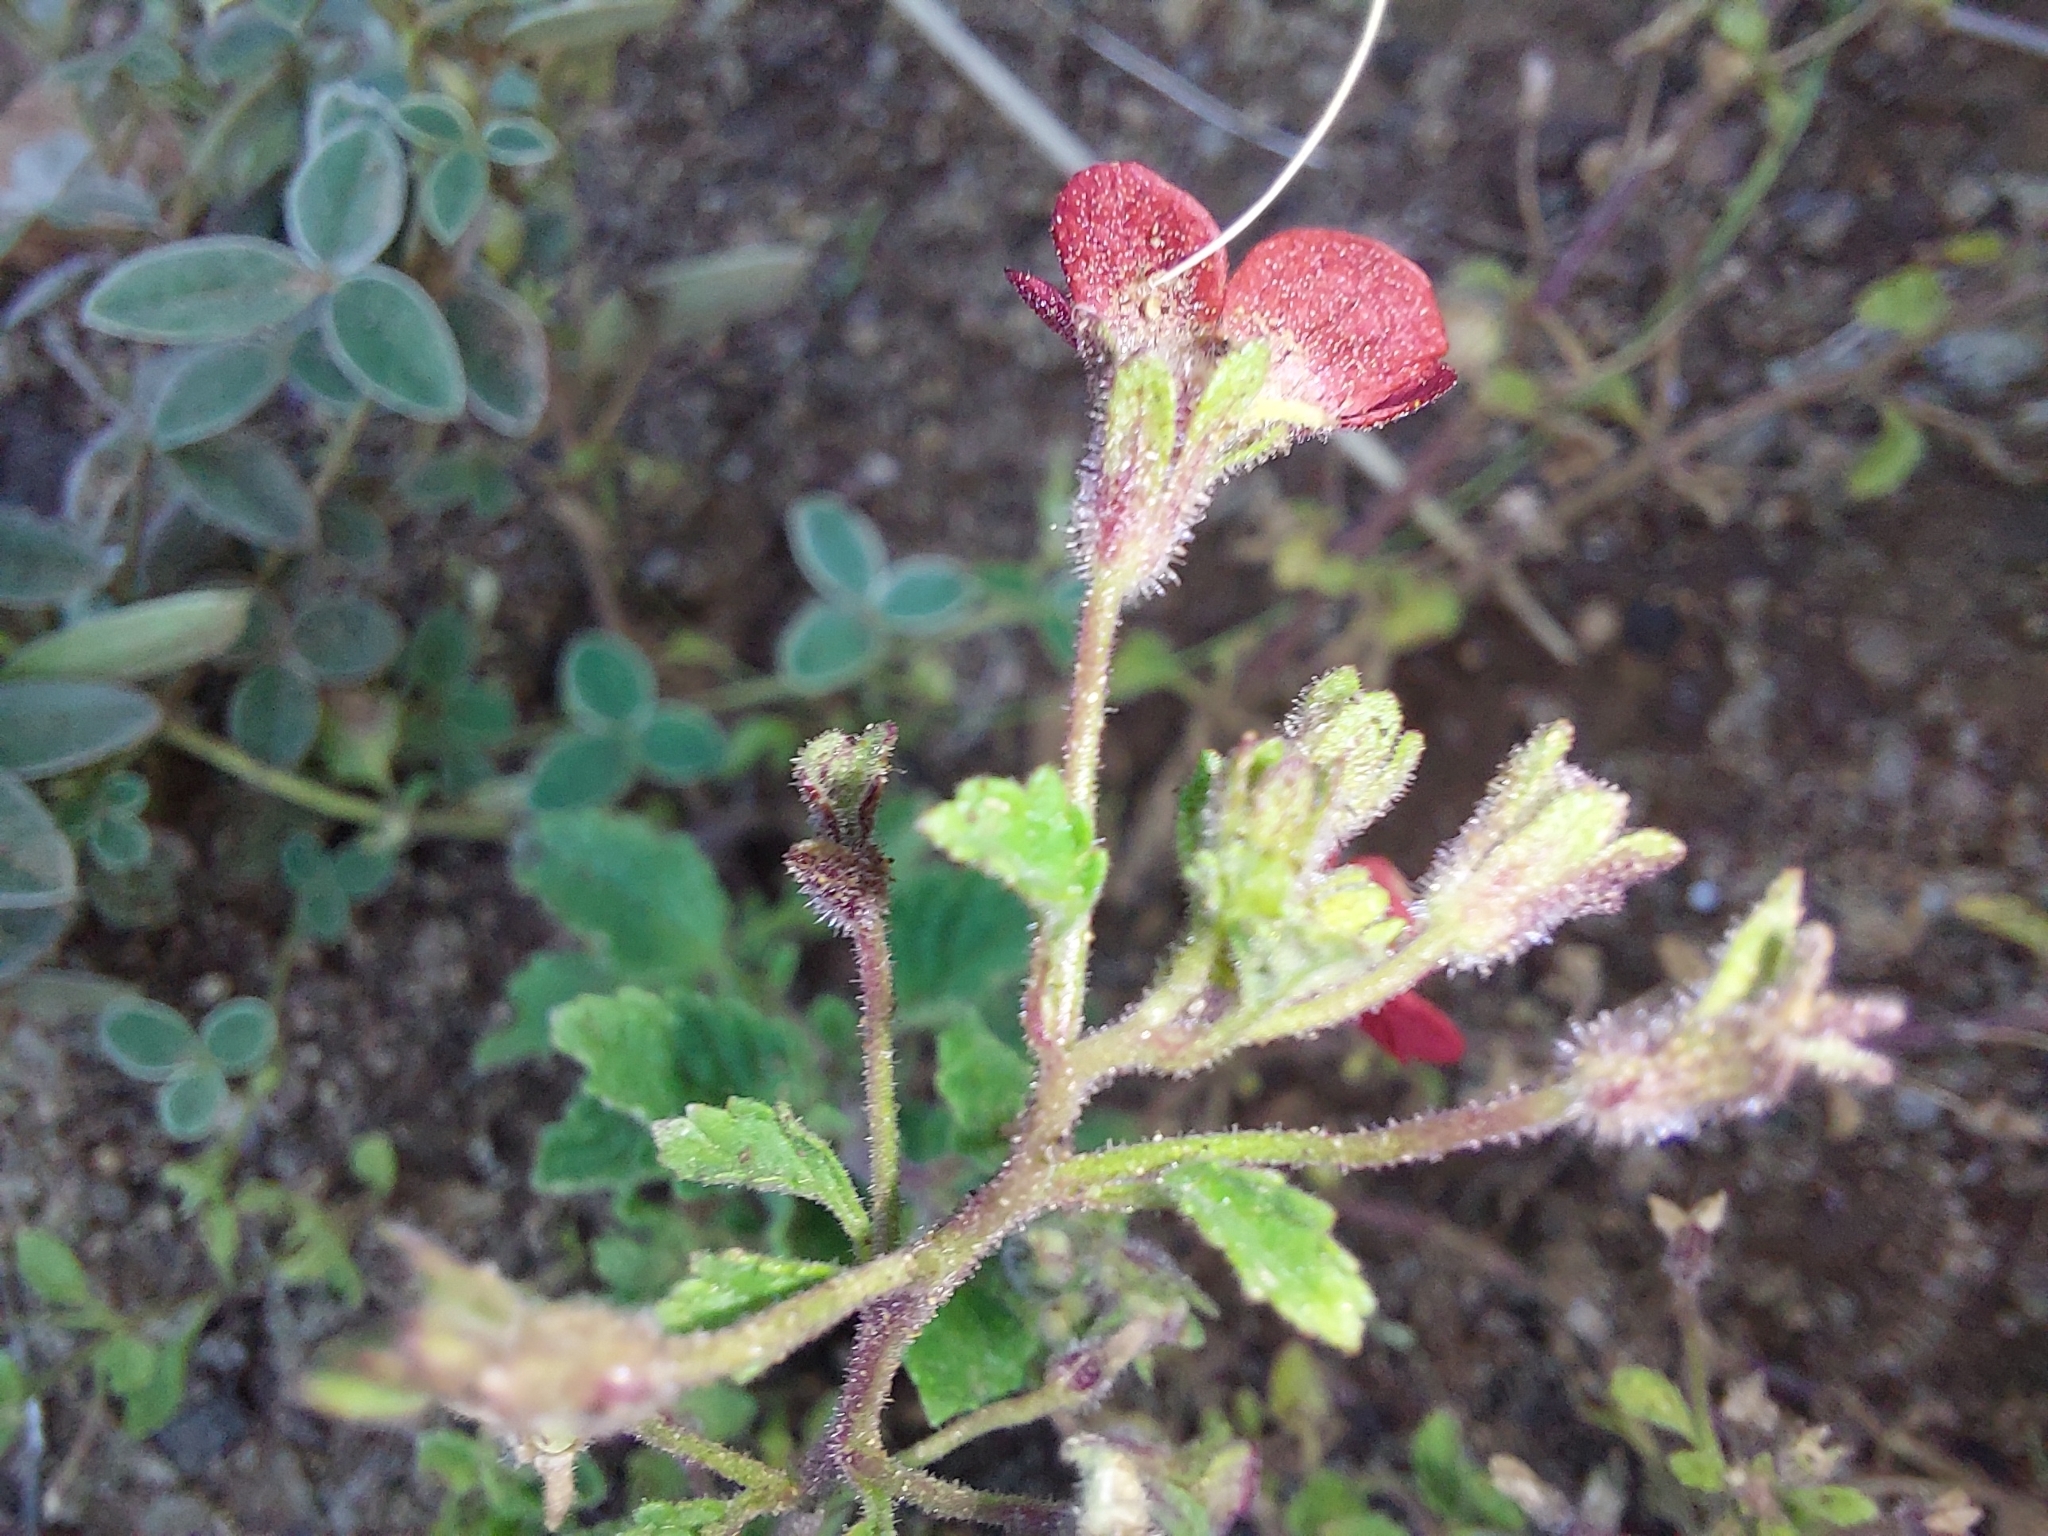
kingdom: Plantae
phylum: Tracheophyta
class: Magnoliopsida
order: Lamiales
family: Scrophulariaceae
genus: Jamesbrittenia
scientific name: Jamesbrittenia breviflora
